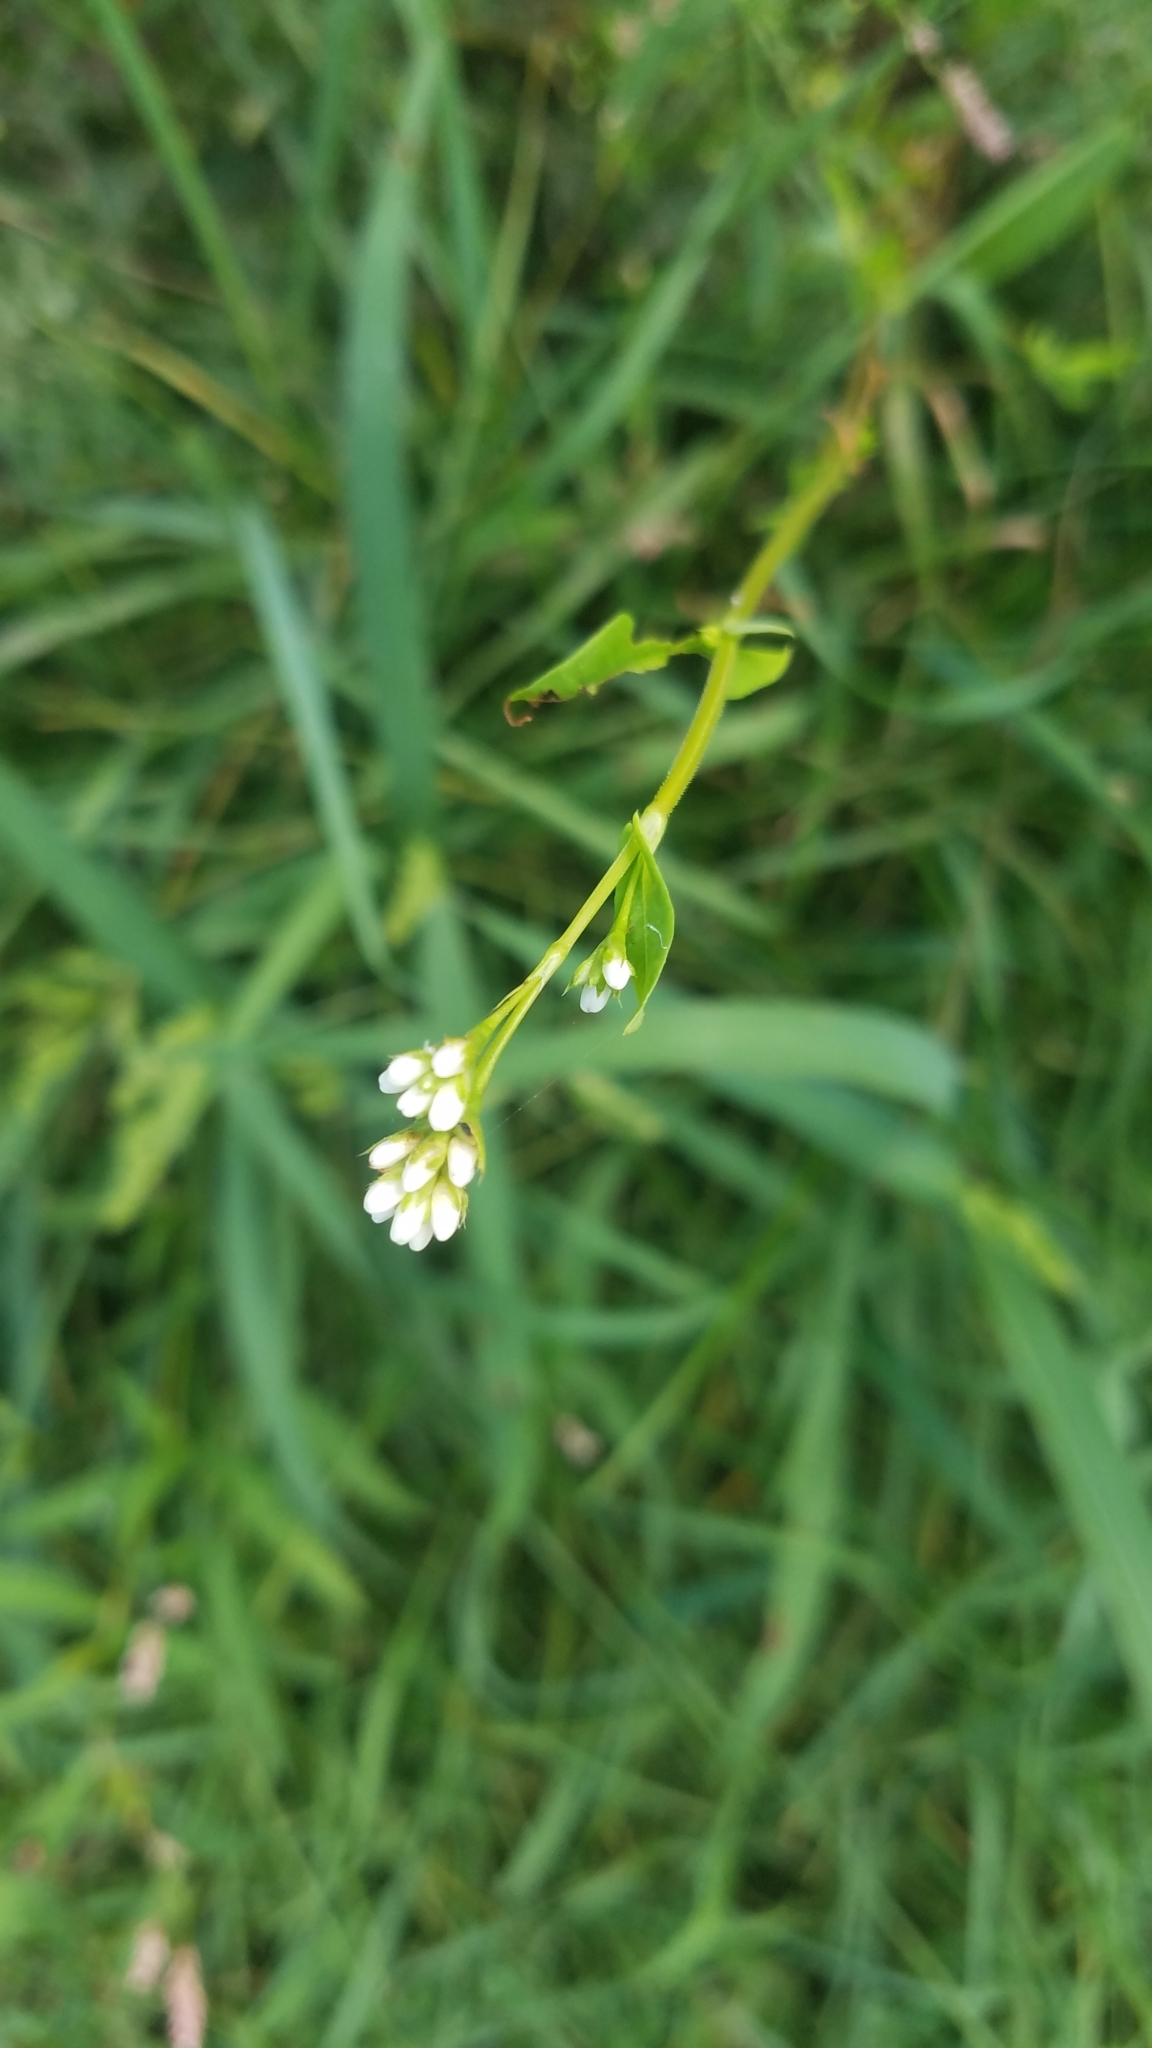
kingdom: Plantae
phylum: Tracheophyta
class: Magnoliopsida
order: Caryophyllales
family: Polygonaceae
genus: Persicaria
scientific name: Persicaria sagittata
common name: American tearthumb
